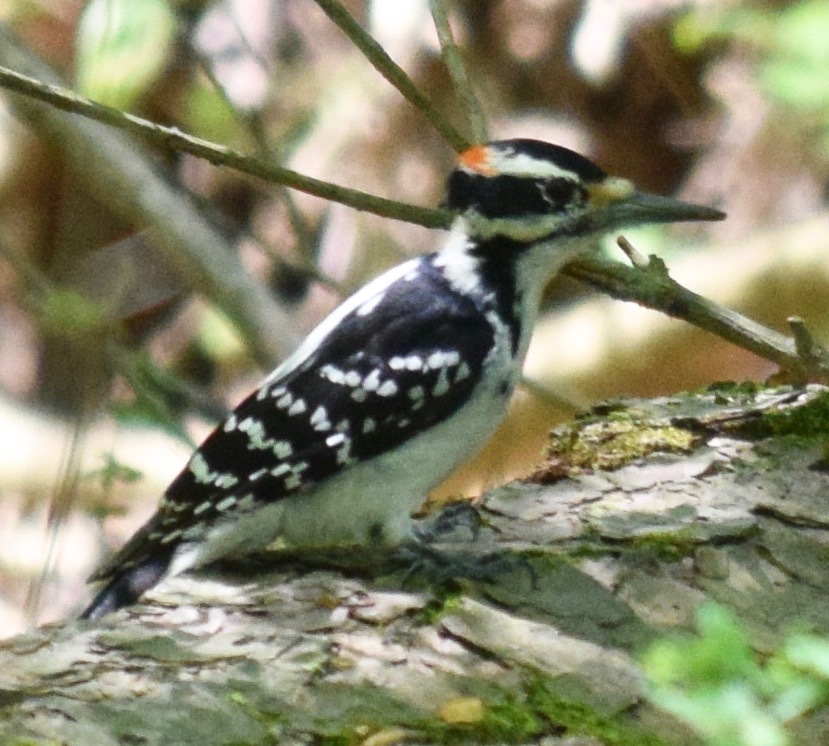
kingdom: Animalia
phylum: Chordata
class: Aves
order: Piciformes
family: Picidae
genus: Leuconotopicus
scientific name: Leuconotopicus villosus
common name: Hairy woodpecker
